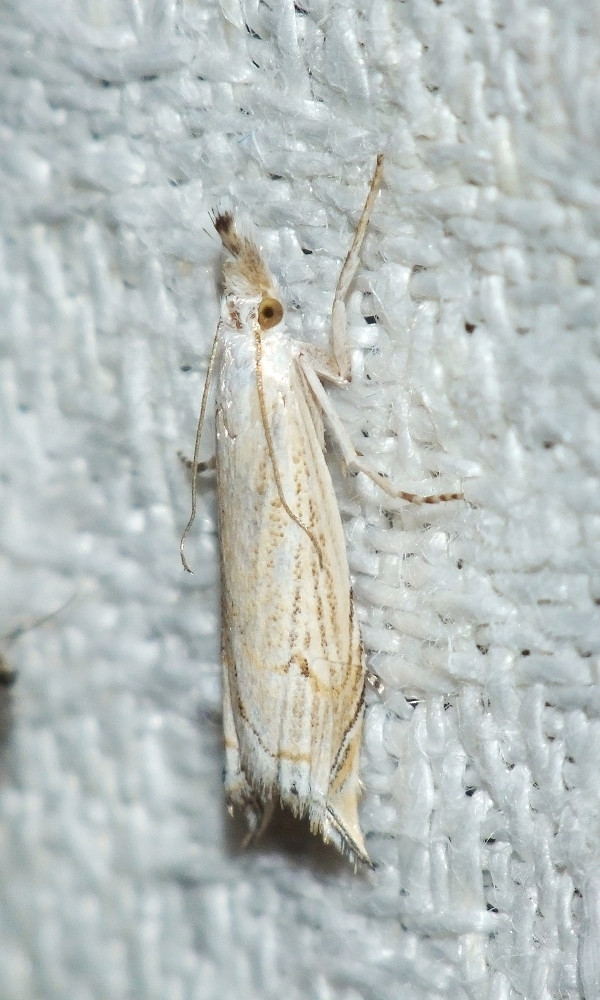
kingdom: Animalia
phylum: Arthropoda
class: Insecta
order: Lepidoptera
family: Crambidae
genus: Metacrambus
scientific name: Metacrambus carectellus
